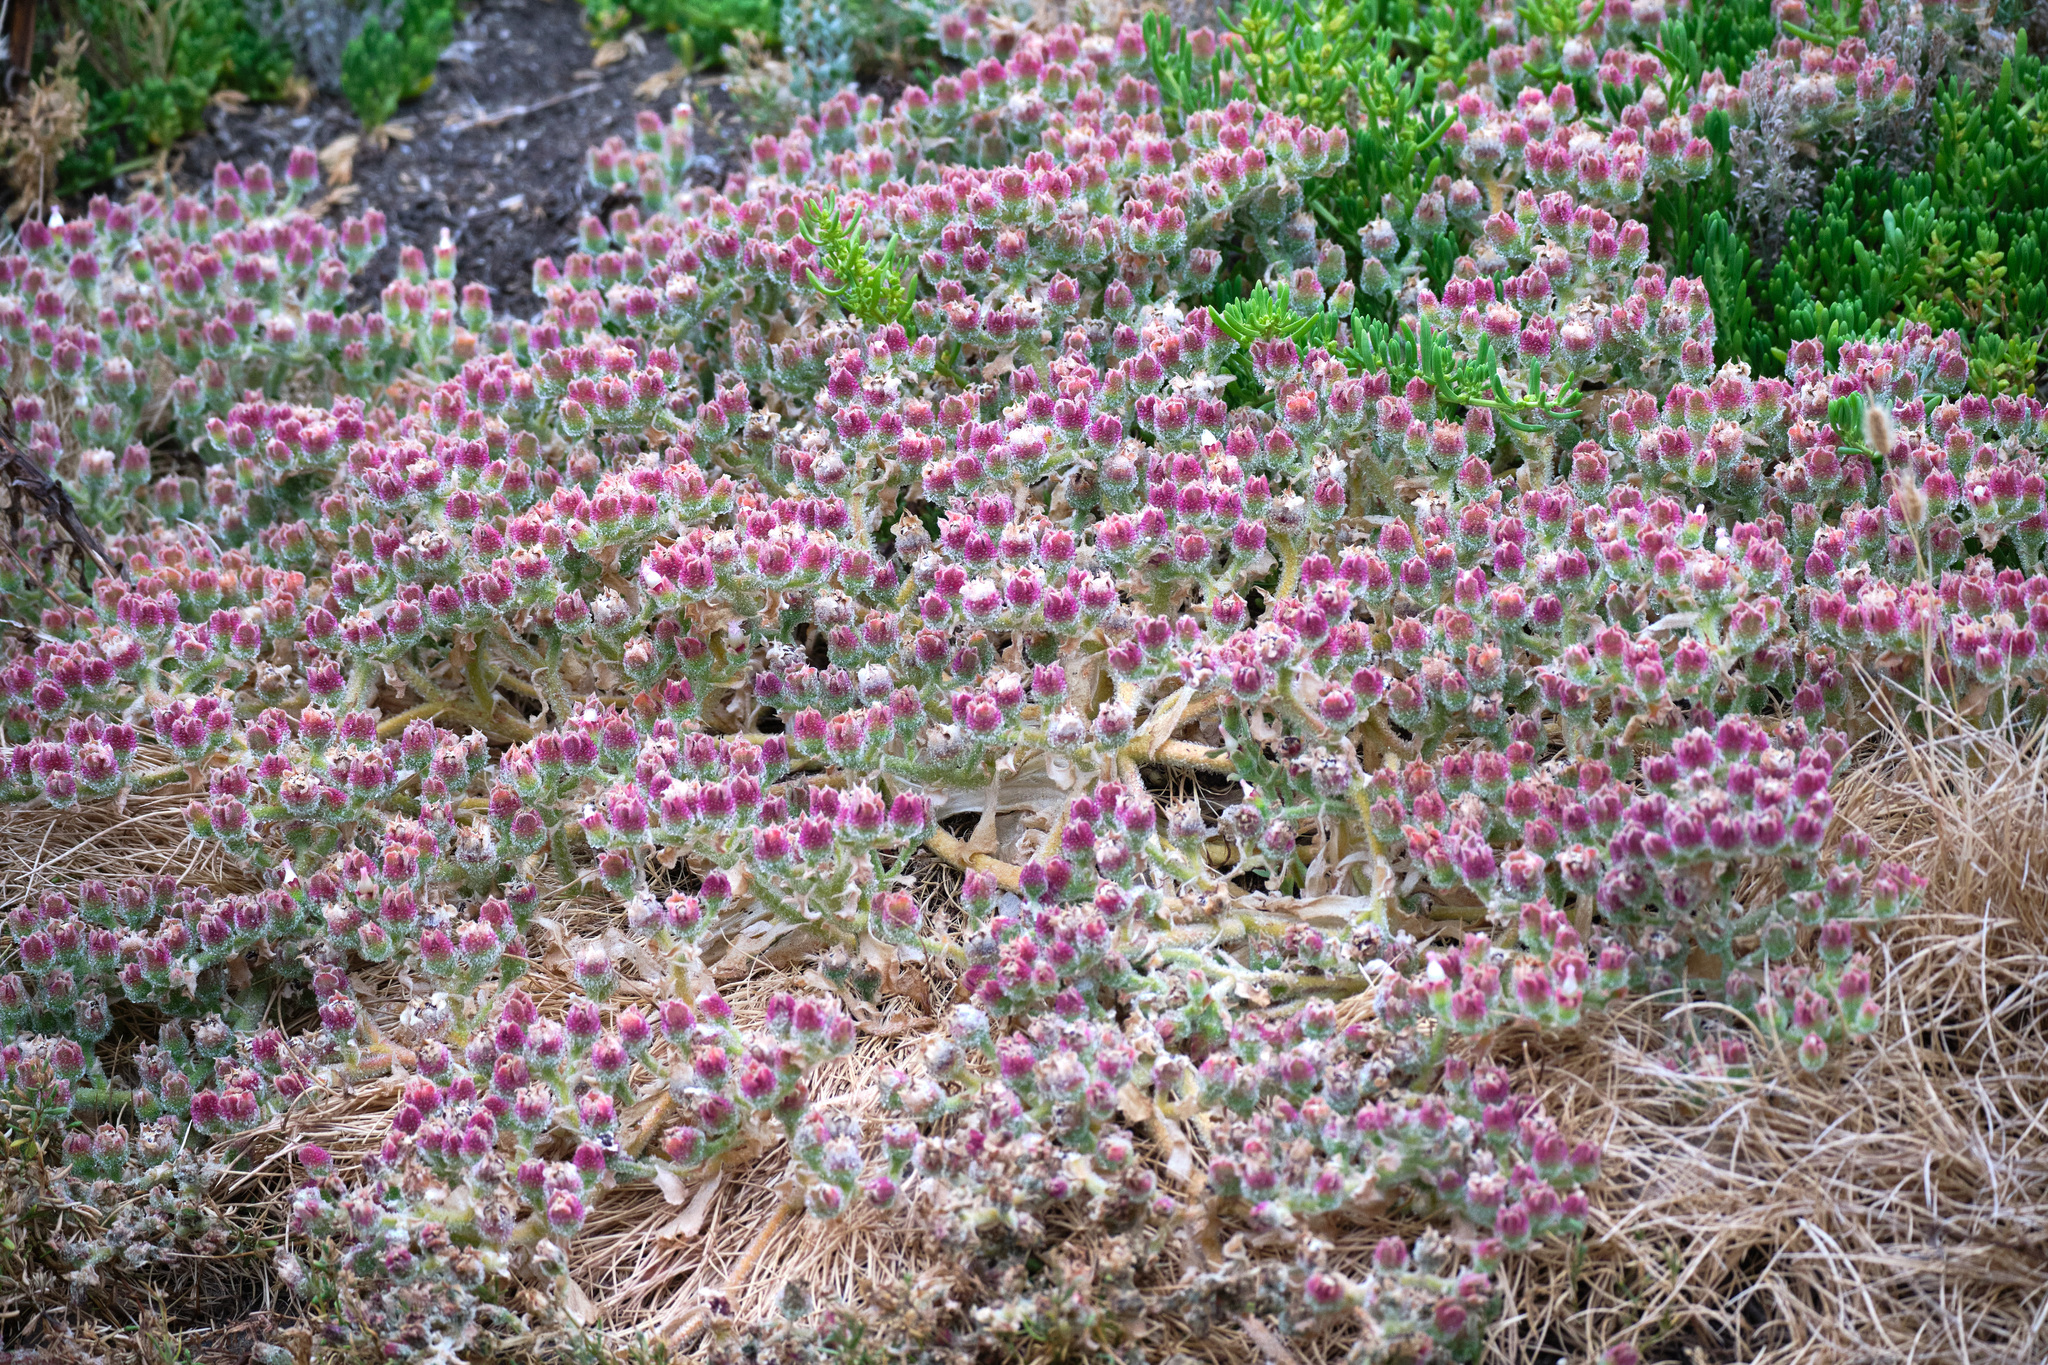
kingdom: Plantae
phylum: Tracheophyta
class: Magnoliopsida
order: Caryophyllales
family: Aizoaceae
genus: Mesembryanthemum
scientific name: Mesembryanthemum crystallinum
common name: Common iceplant
